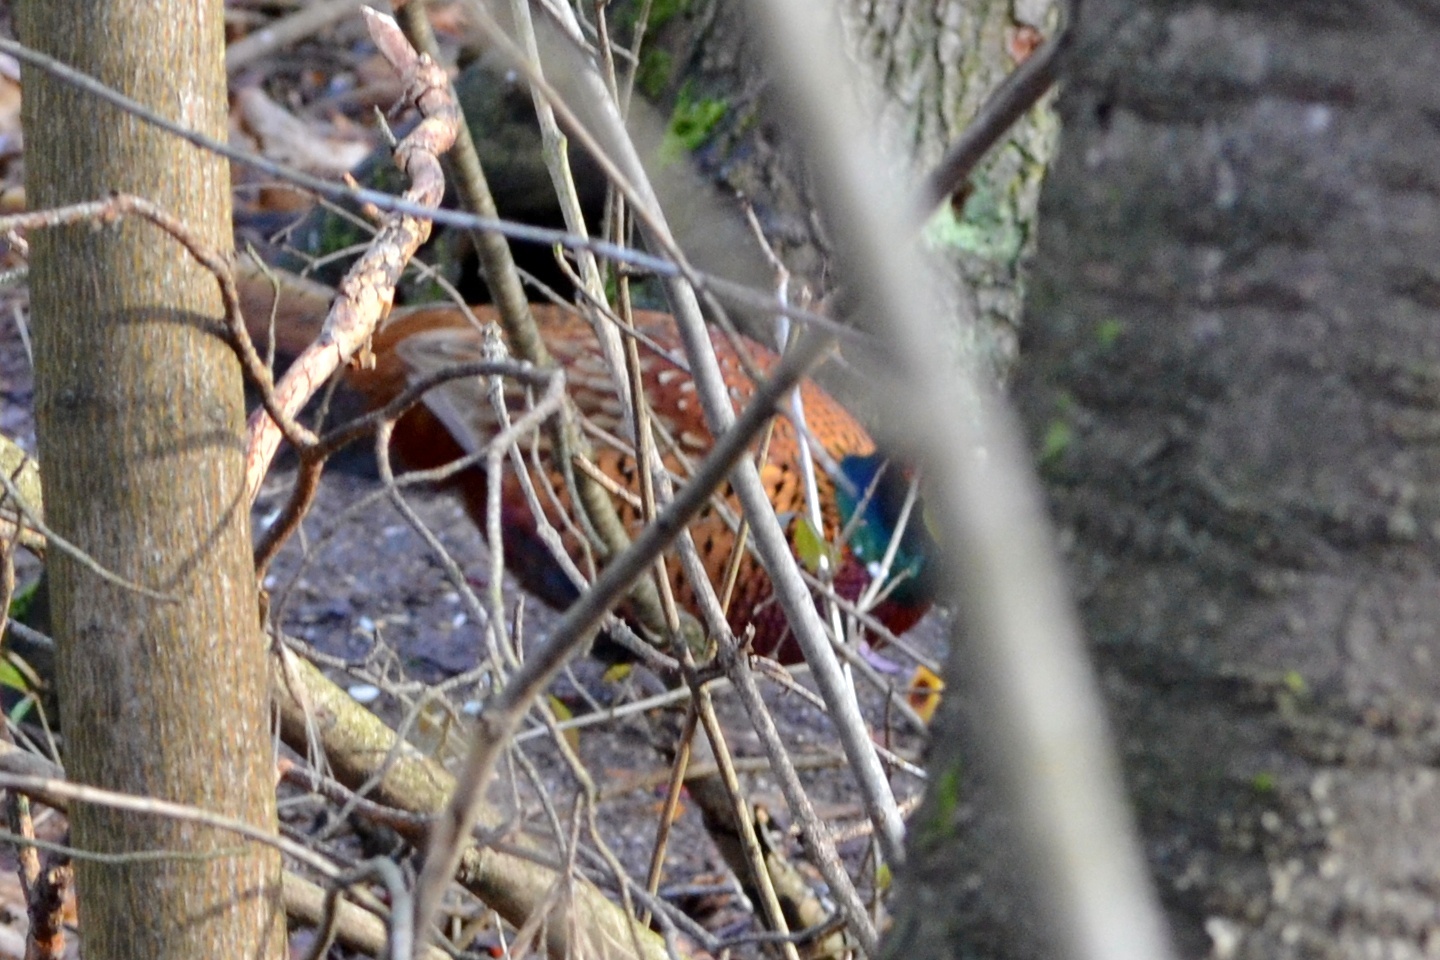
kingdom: Animalia
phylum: Chordata
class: Aves
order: Galliformes
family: Phasianidae
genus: Phasianus
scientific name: Phasianus colchicus
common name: Common pheasant
